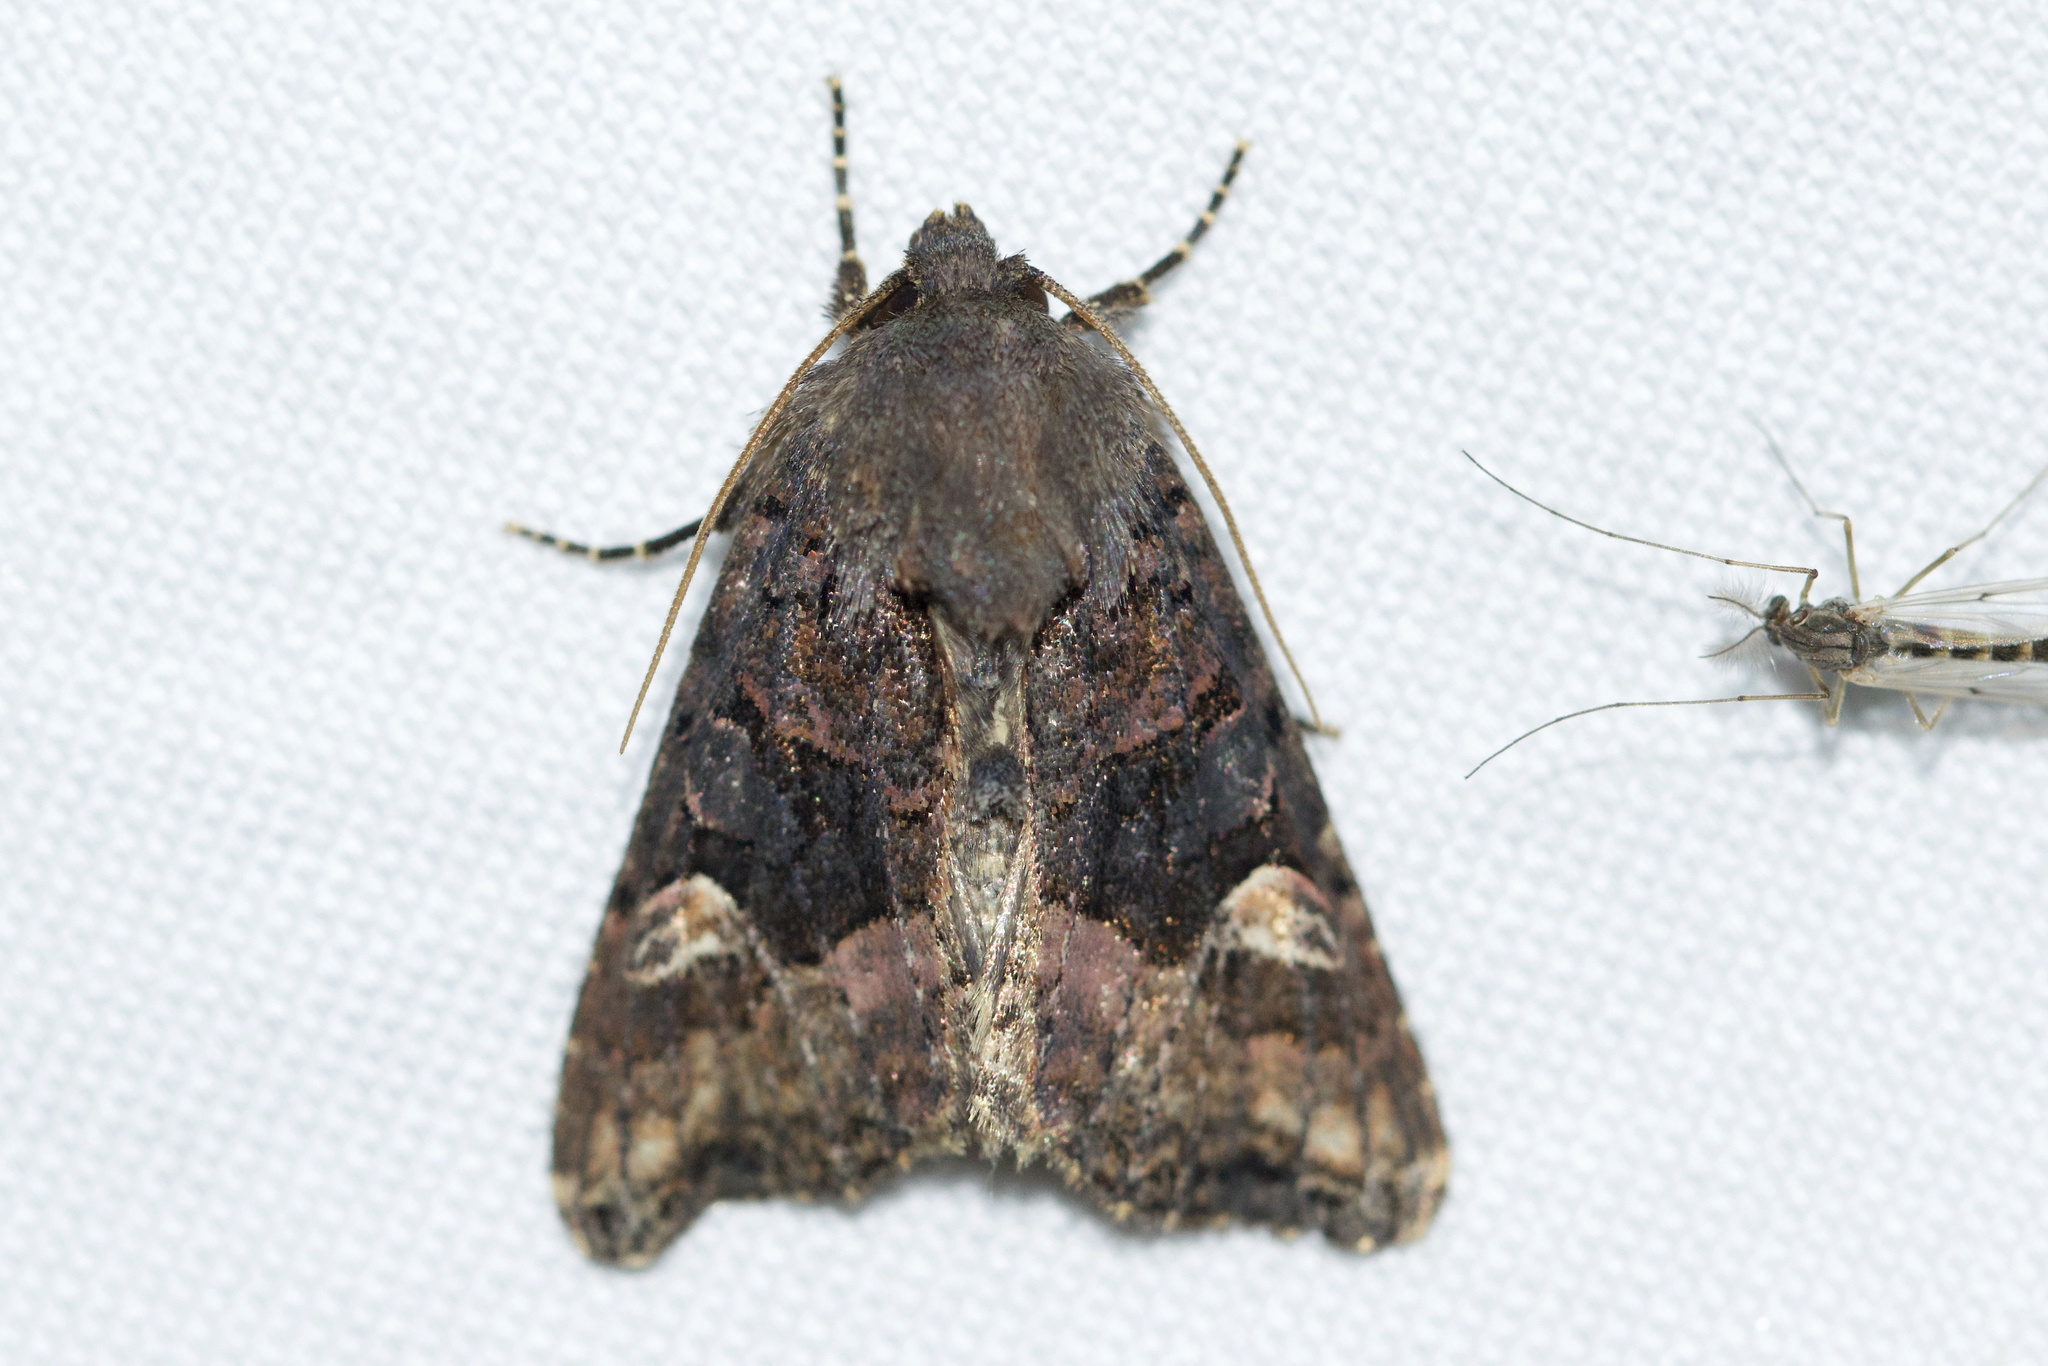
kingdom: Animalia
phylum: Arthropoda
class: Insecta
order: Lepidoptera
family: Noctuidae
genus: Euplexia
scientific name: Euplexia benesimilis
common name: American angle shades
